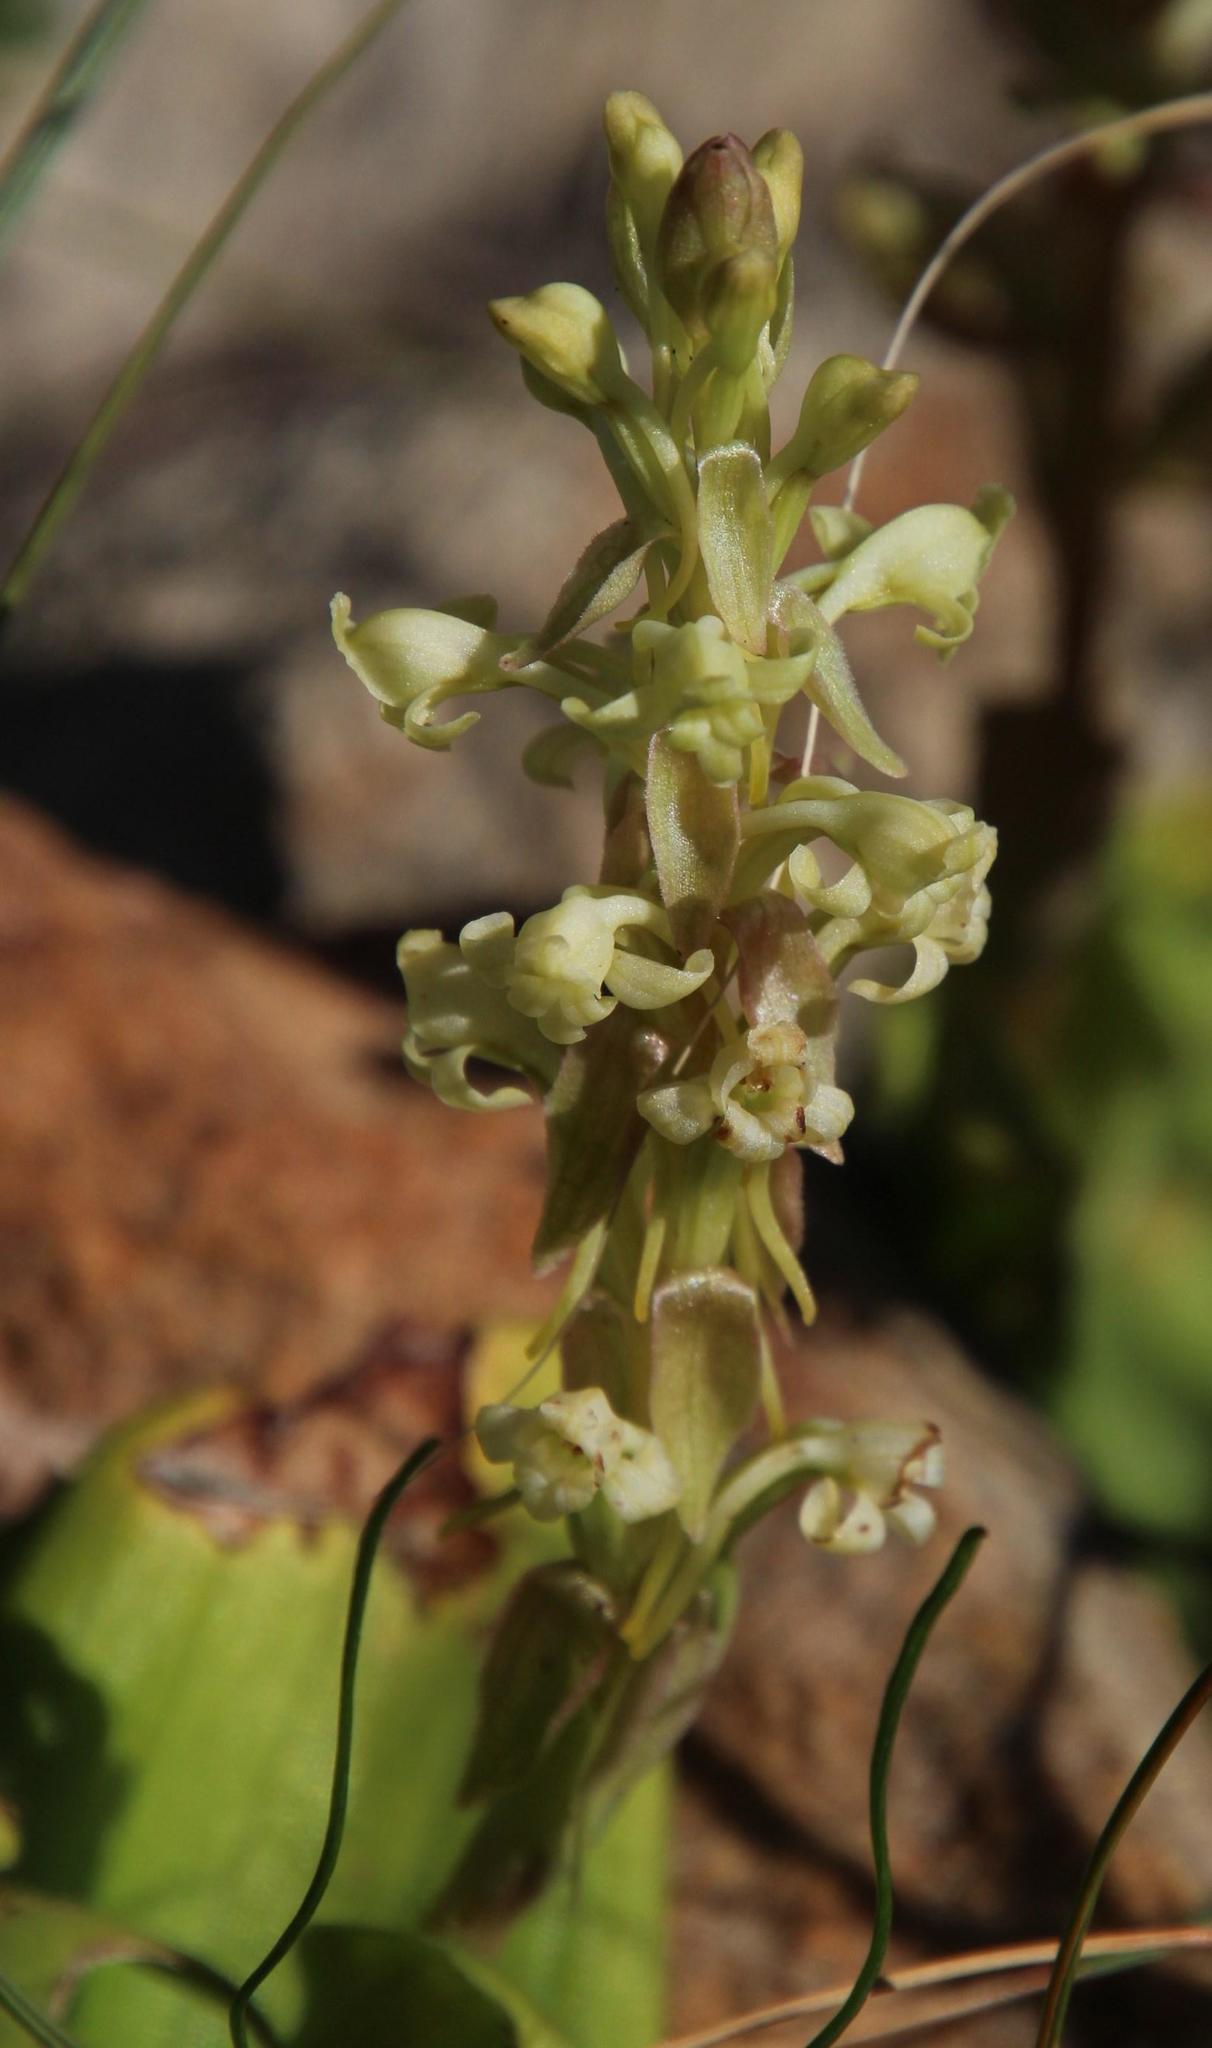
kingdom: Plantae
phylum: Tracheophyta
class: Liliopsida
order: Asparagales
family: Orchidaceae
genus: Satyrium
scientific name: Satyrium humile
